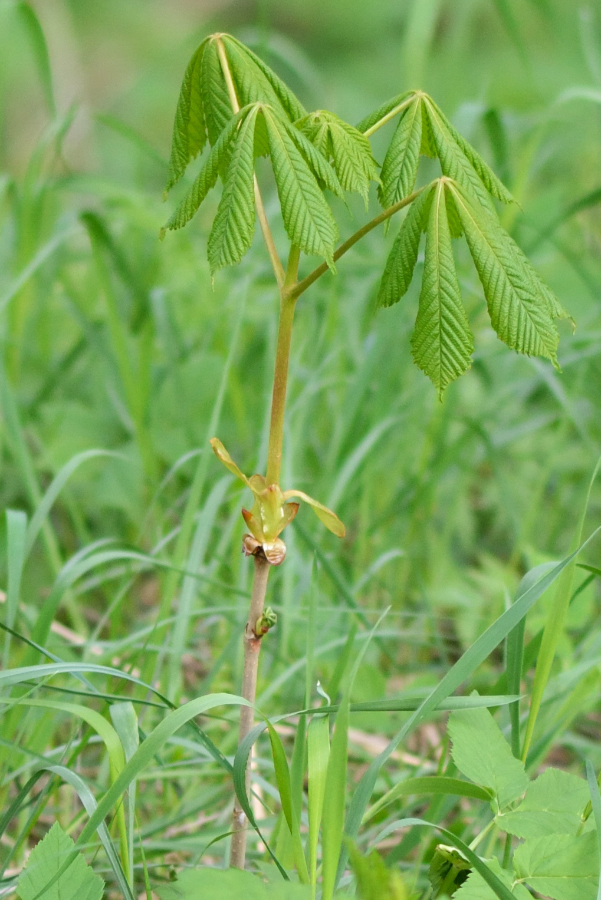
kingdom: Plantae
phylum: Tracheophyta
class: Magnoliopsida
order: Sapindales
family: Sapindaceae
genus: Aesculus
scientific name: Aesculus hippocastanum
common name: Horse-chestnut
